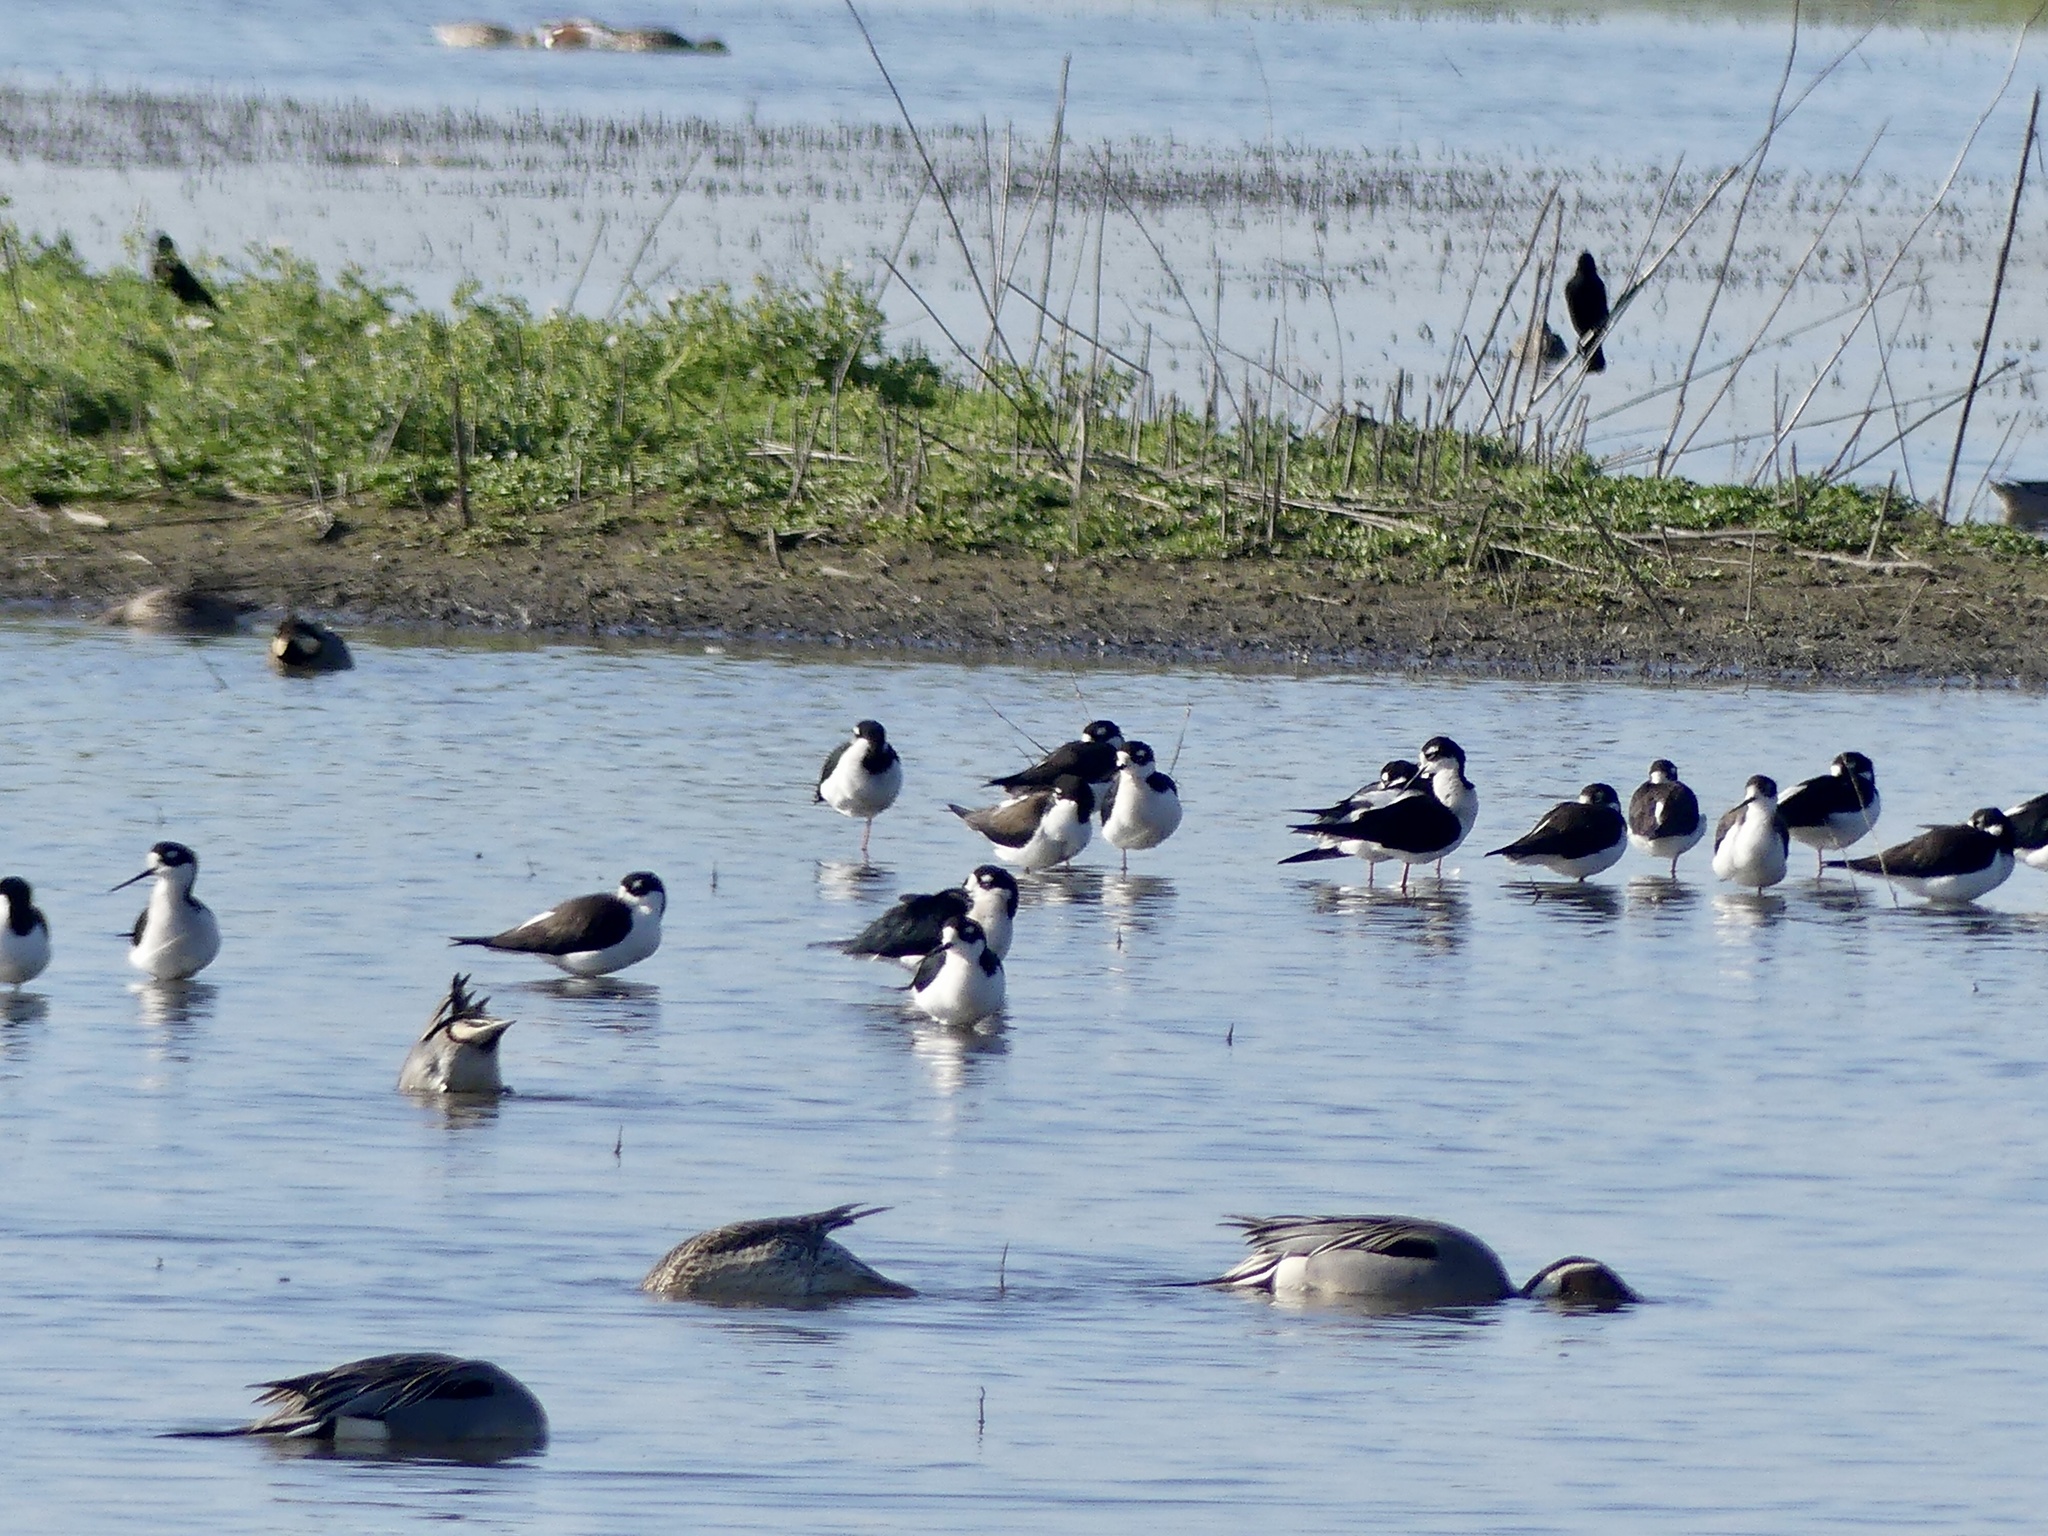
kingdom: Animalia
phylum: Chordata
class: Aves
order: Charadriiformes
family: Recurvirostridae
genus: Himantopus
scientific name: Himantopus mexicanus
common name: Black-necked stilt
